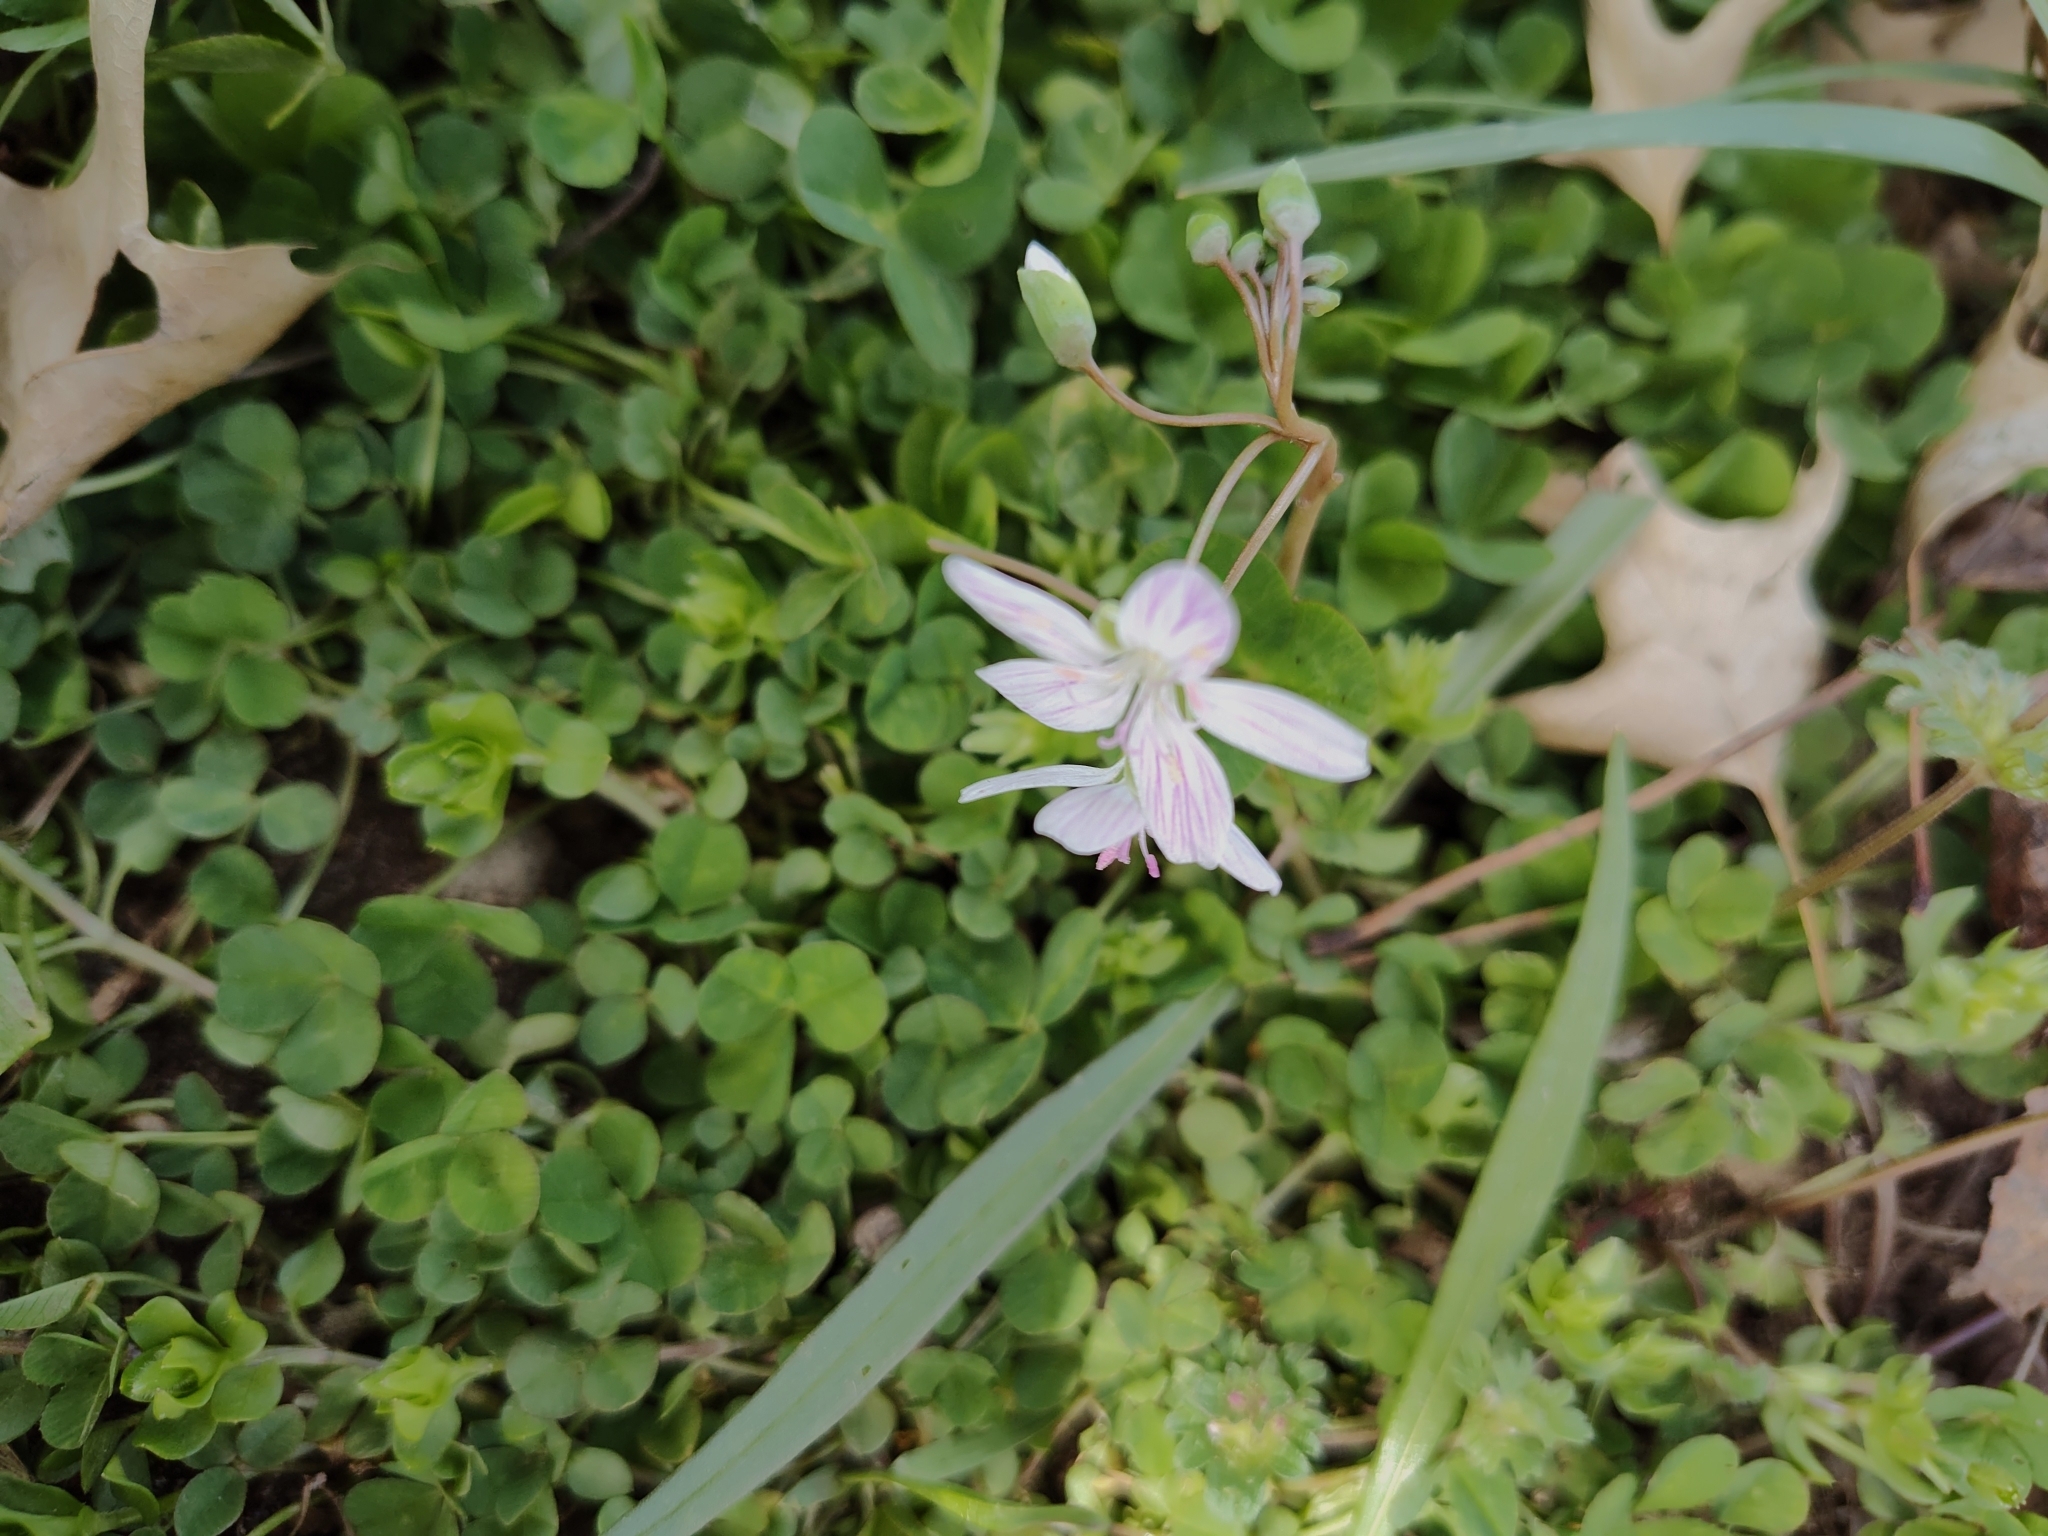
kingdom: Plantae
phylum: Tracheophyta
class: Magnoliopsida
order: Caryophyllales
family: Montiaceae
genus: Claytonia
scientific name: Claytonia virginica
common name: Virginia springbeauty
